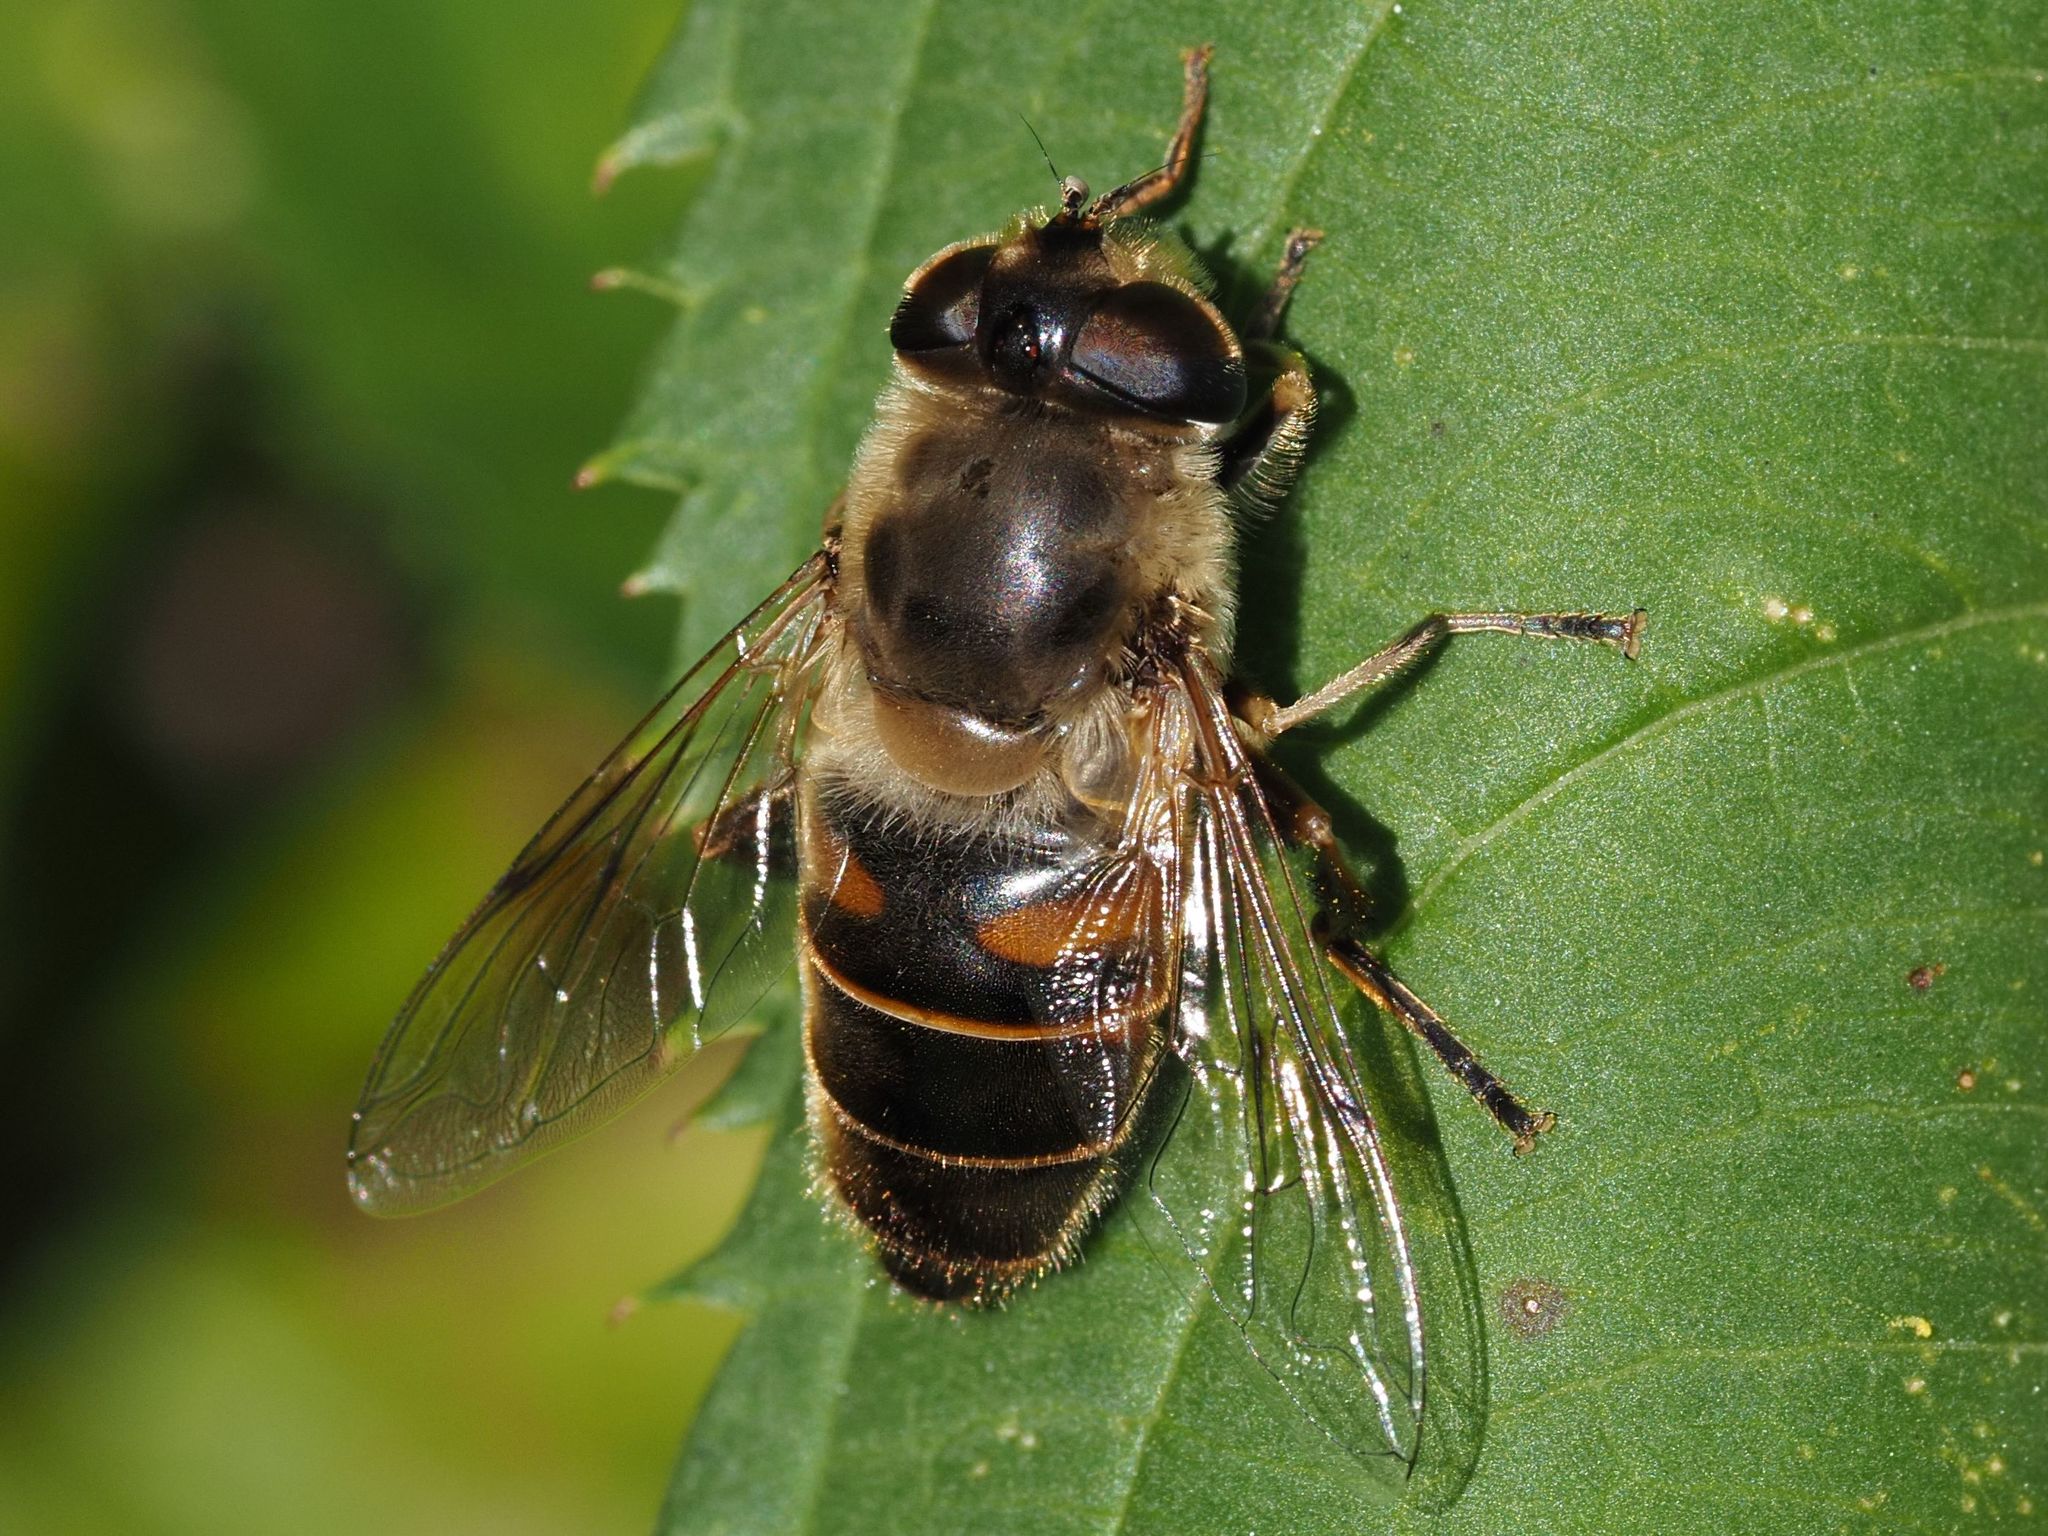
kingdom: Animalia
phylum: Arthropoda
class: Insecta
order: Diptera
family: Syrphidae
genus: Eristalis
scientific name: Eristalis tenax
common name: Drone fly
